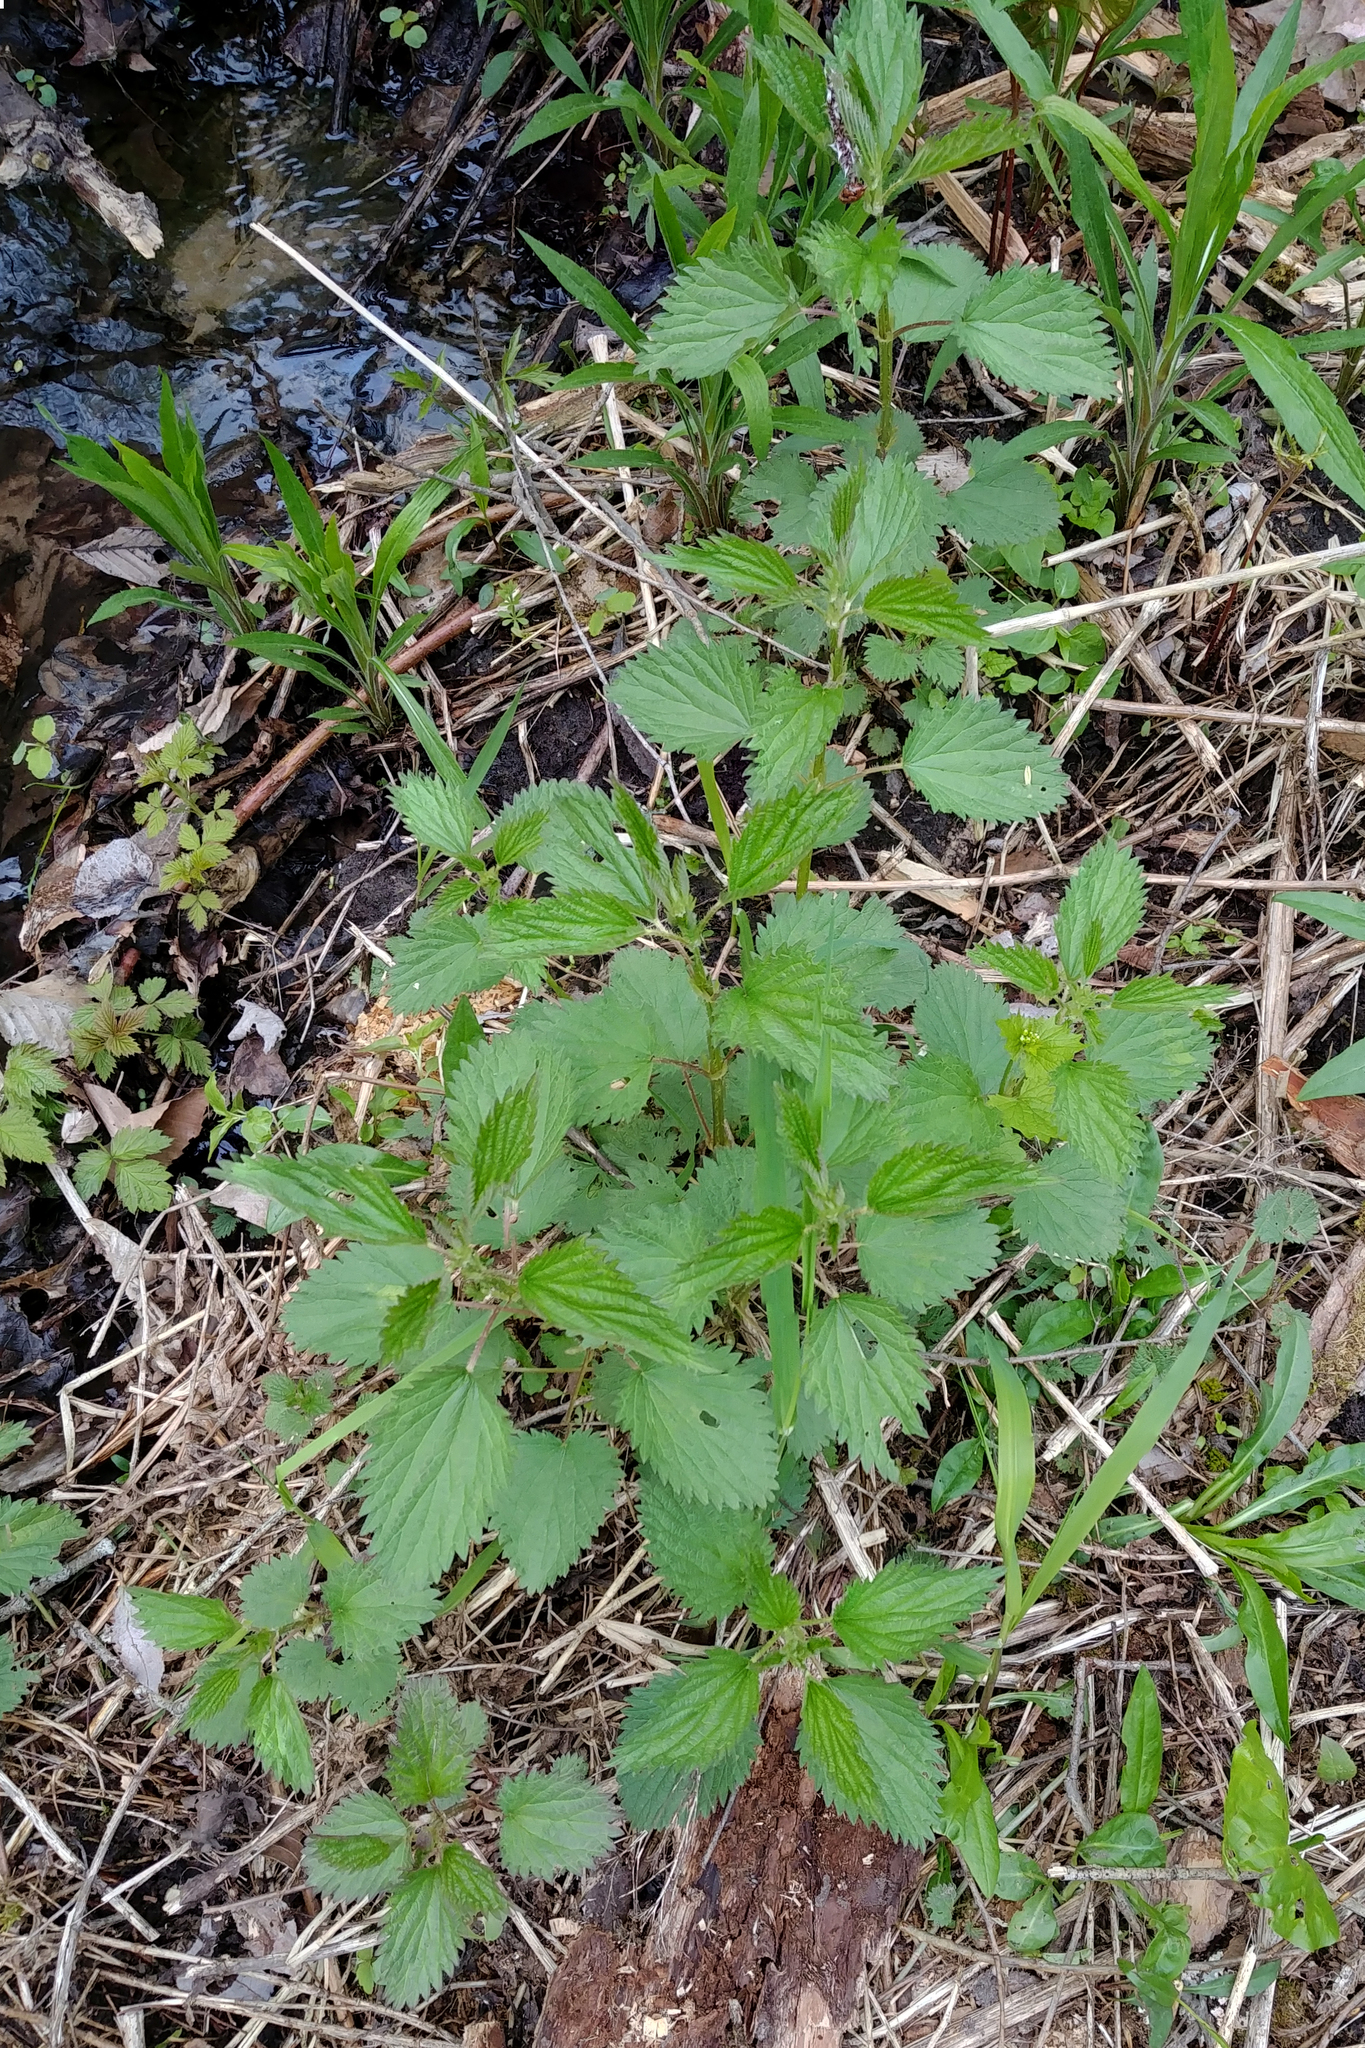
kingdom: Plantae
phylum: Tracheophyta
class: Magnoliopsida
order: Rosales
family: Urticaceae
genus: Urtica
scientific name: Urtica dioica
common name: Common nettle
